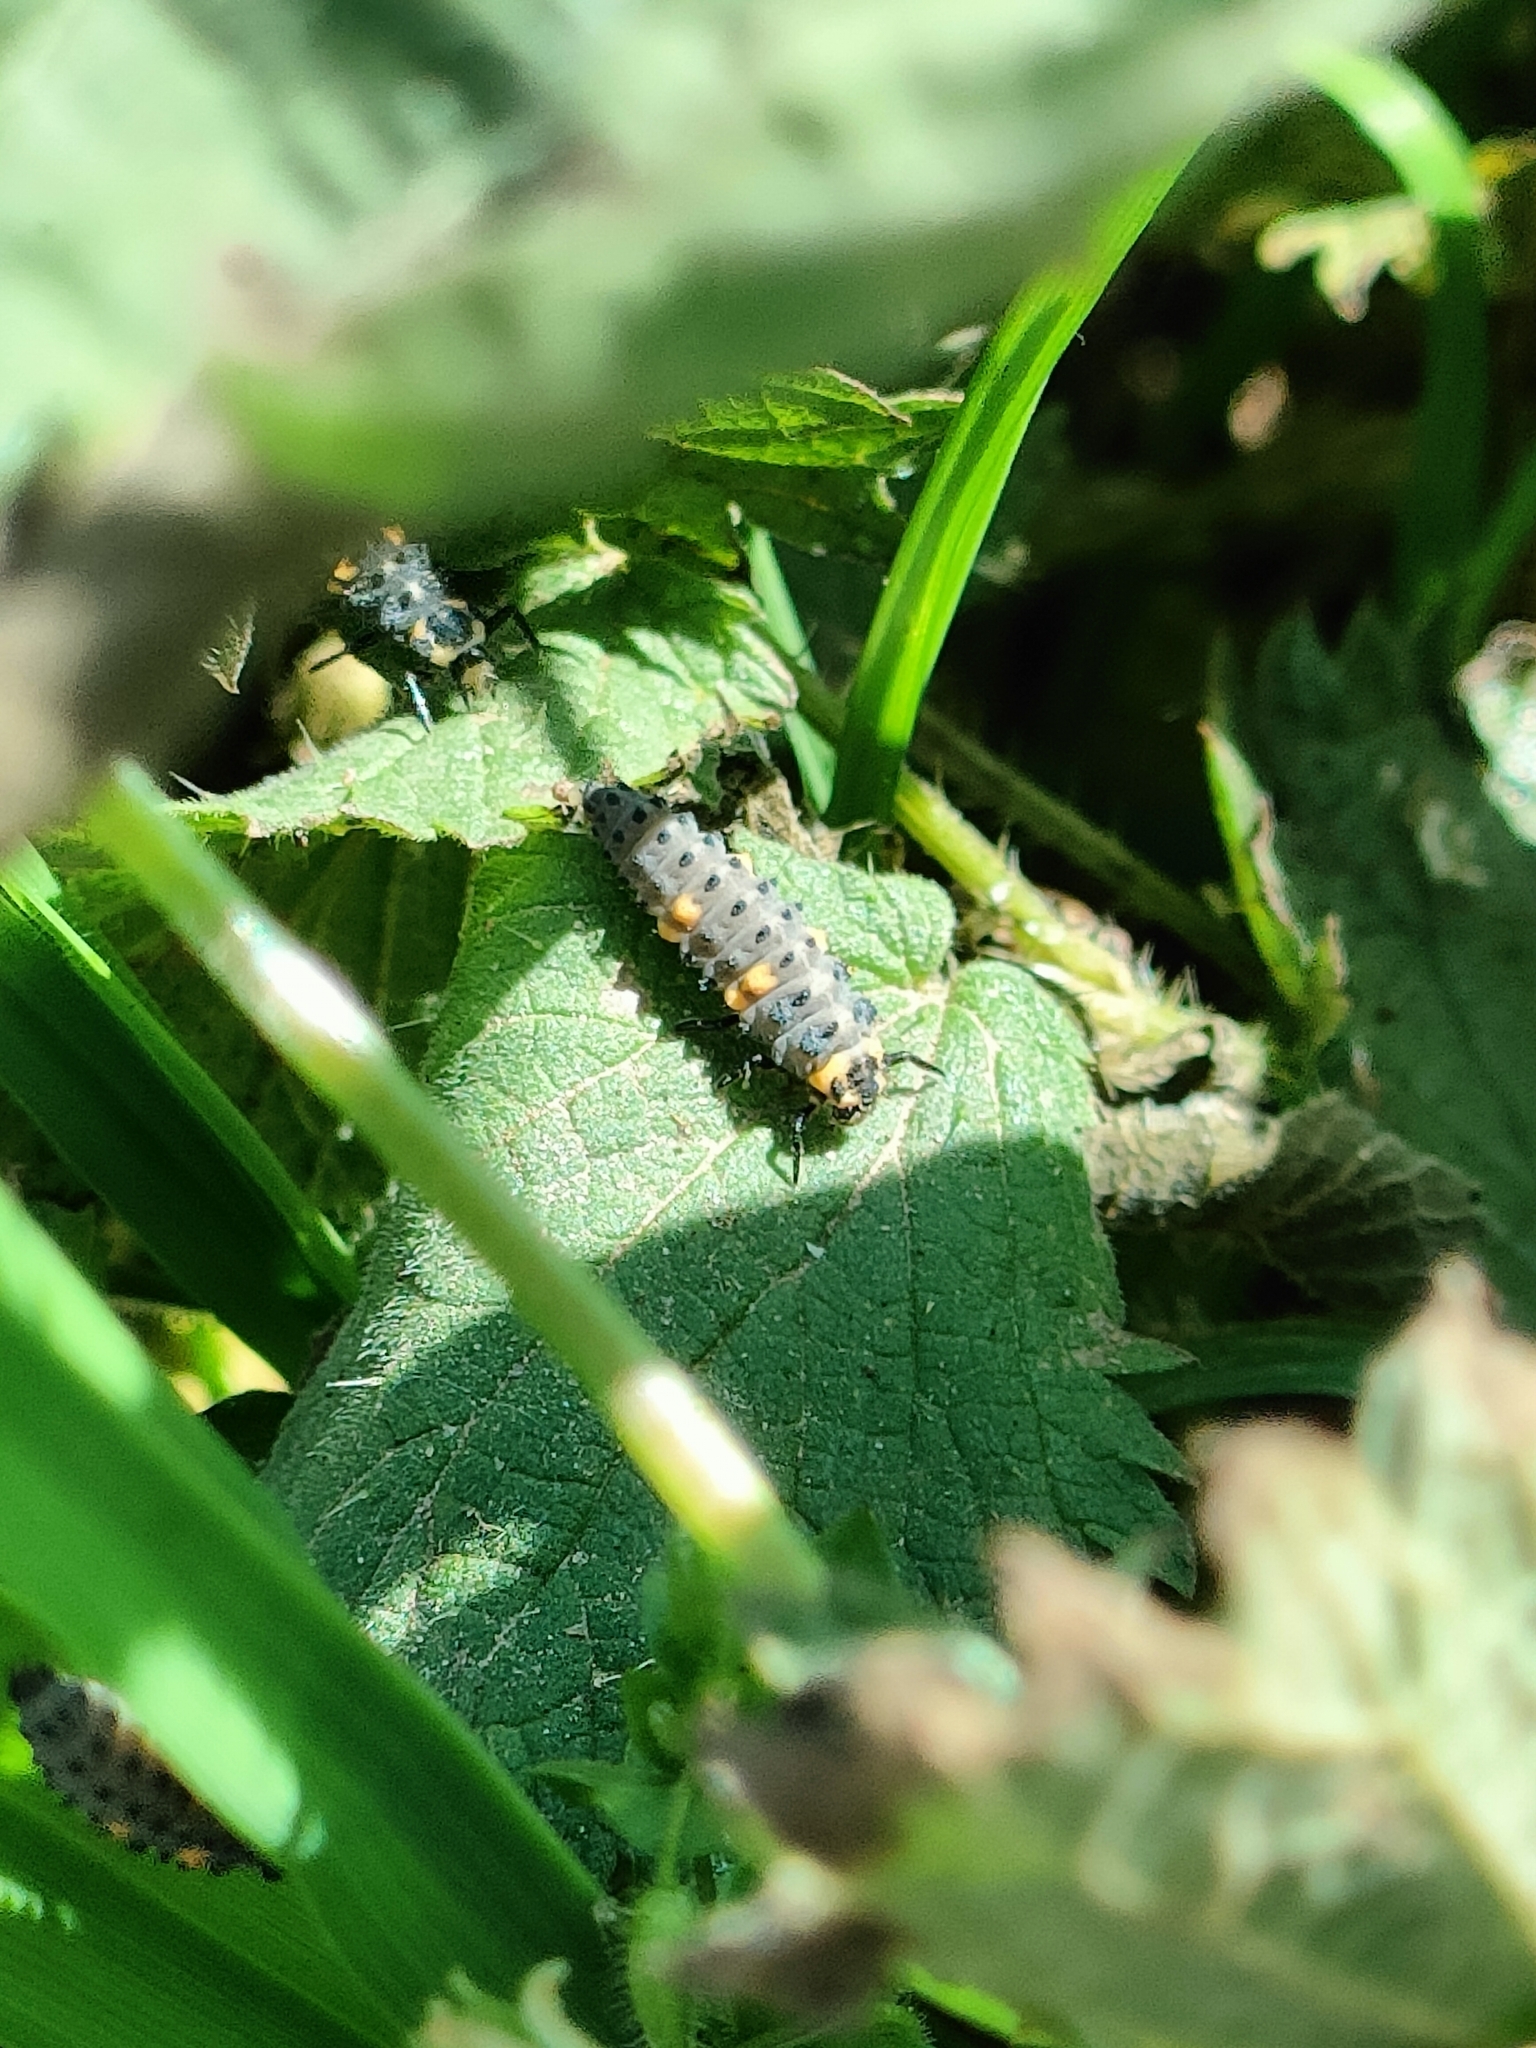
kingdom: Animalia
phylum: Arthropoda
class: Insecta
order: Coleoptera
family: Coccinellidae
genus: Coccinella
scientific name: Coccinella septempunctata
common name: Sevenspotted lady beetle
